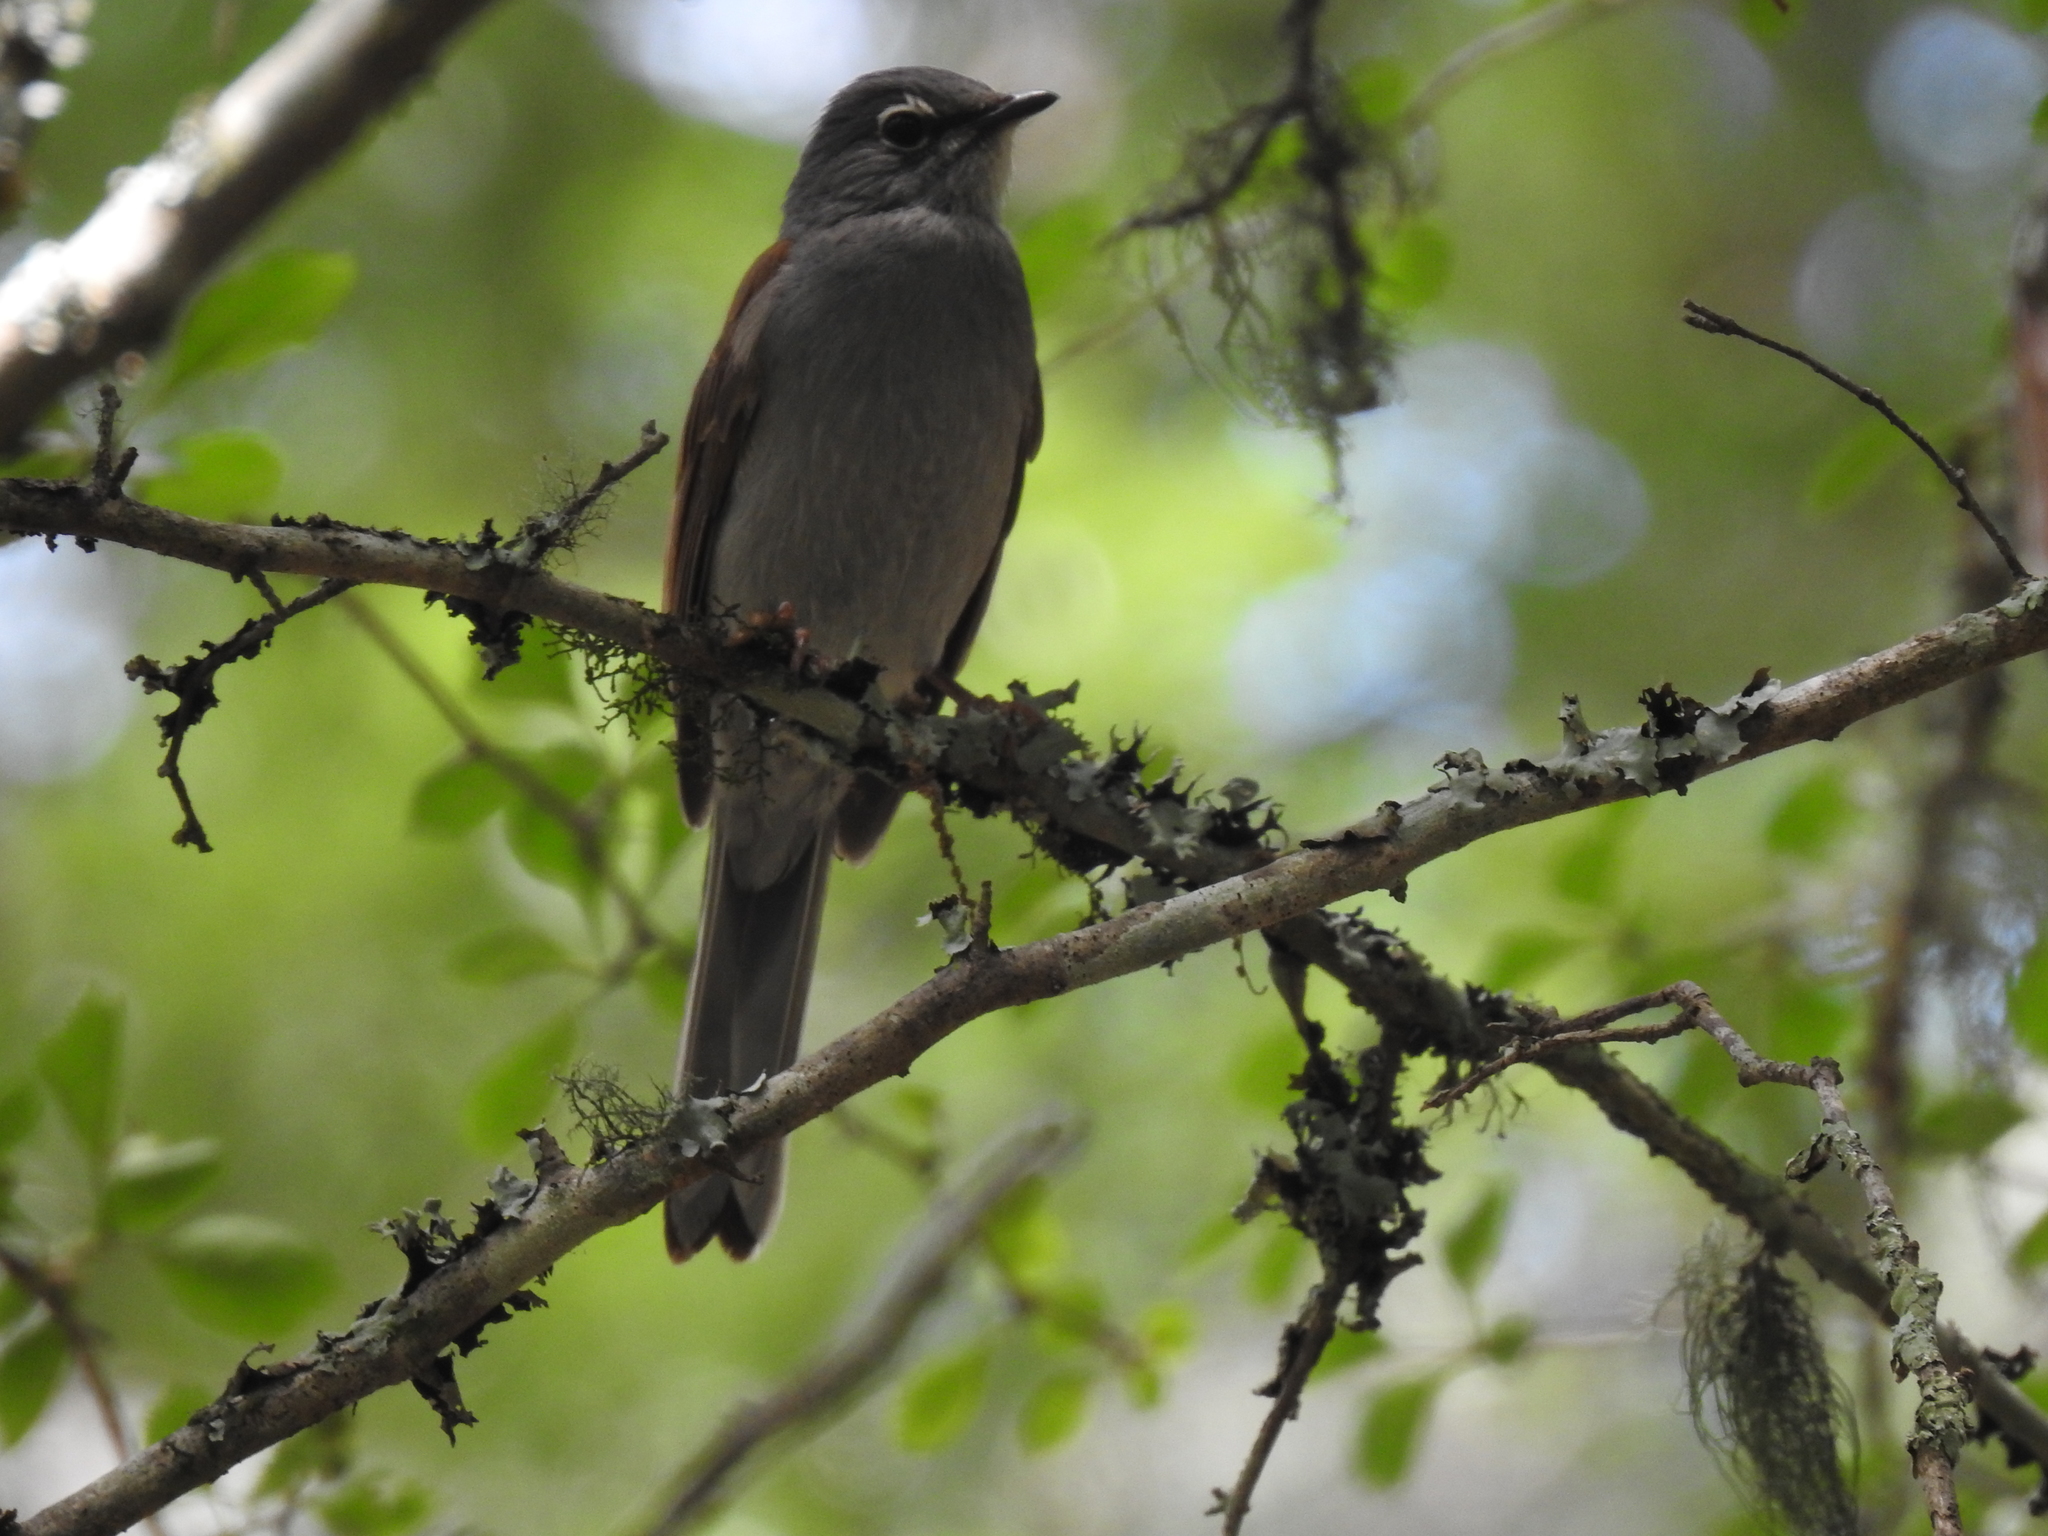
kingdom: Animalia
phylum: Chordata
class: Aves
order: Passeriformes
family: Turdidae
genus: Myadestes
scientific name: Myadestes occidentalis
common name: Brown-backed solitaire
